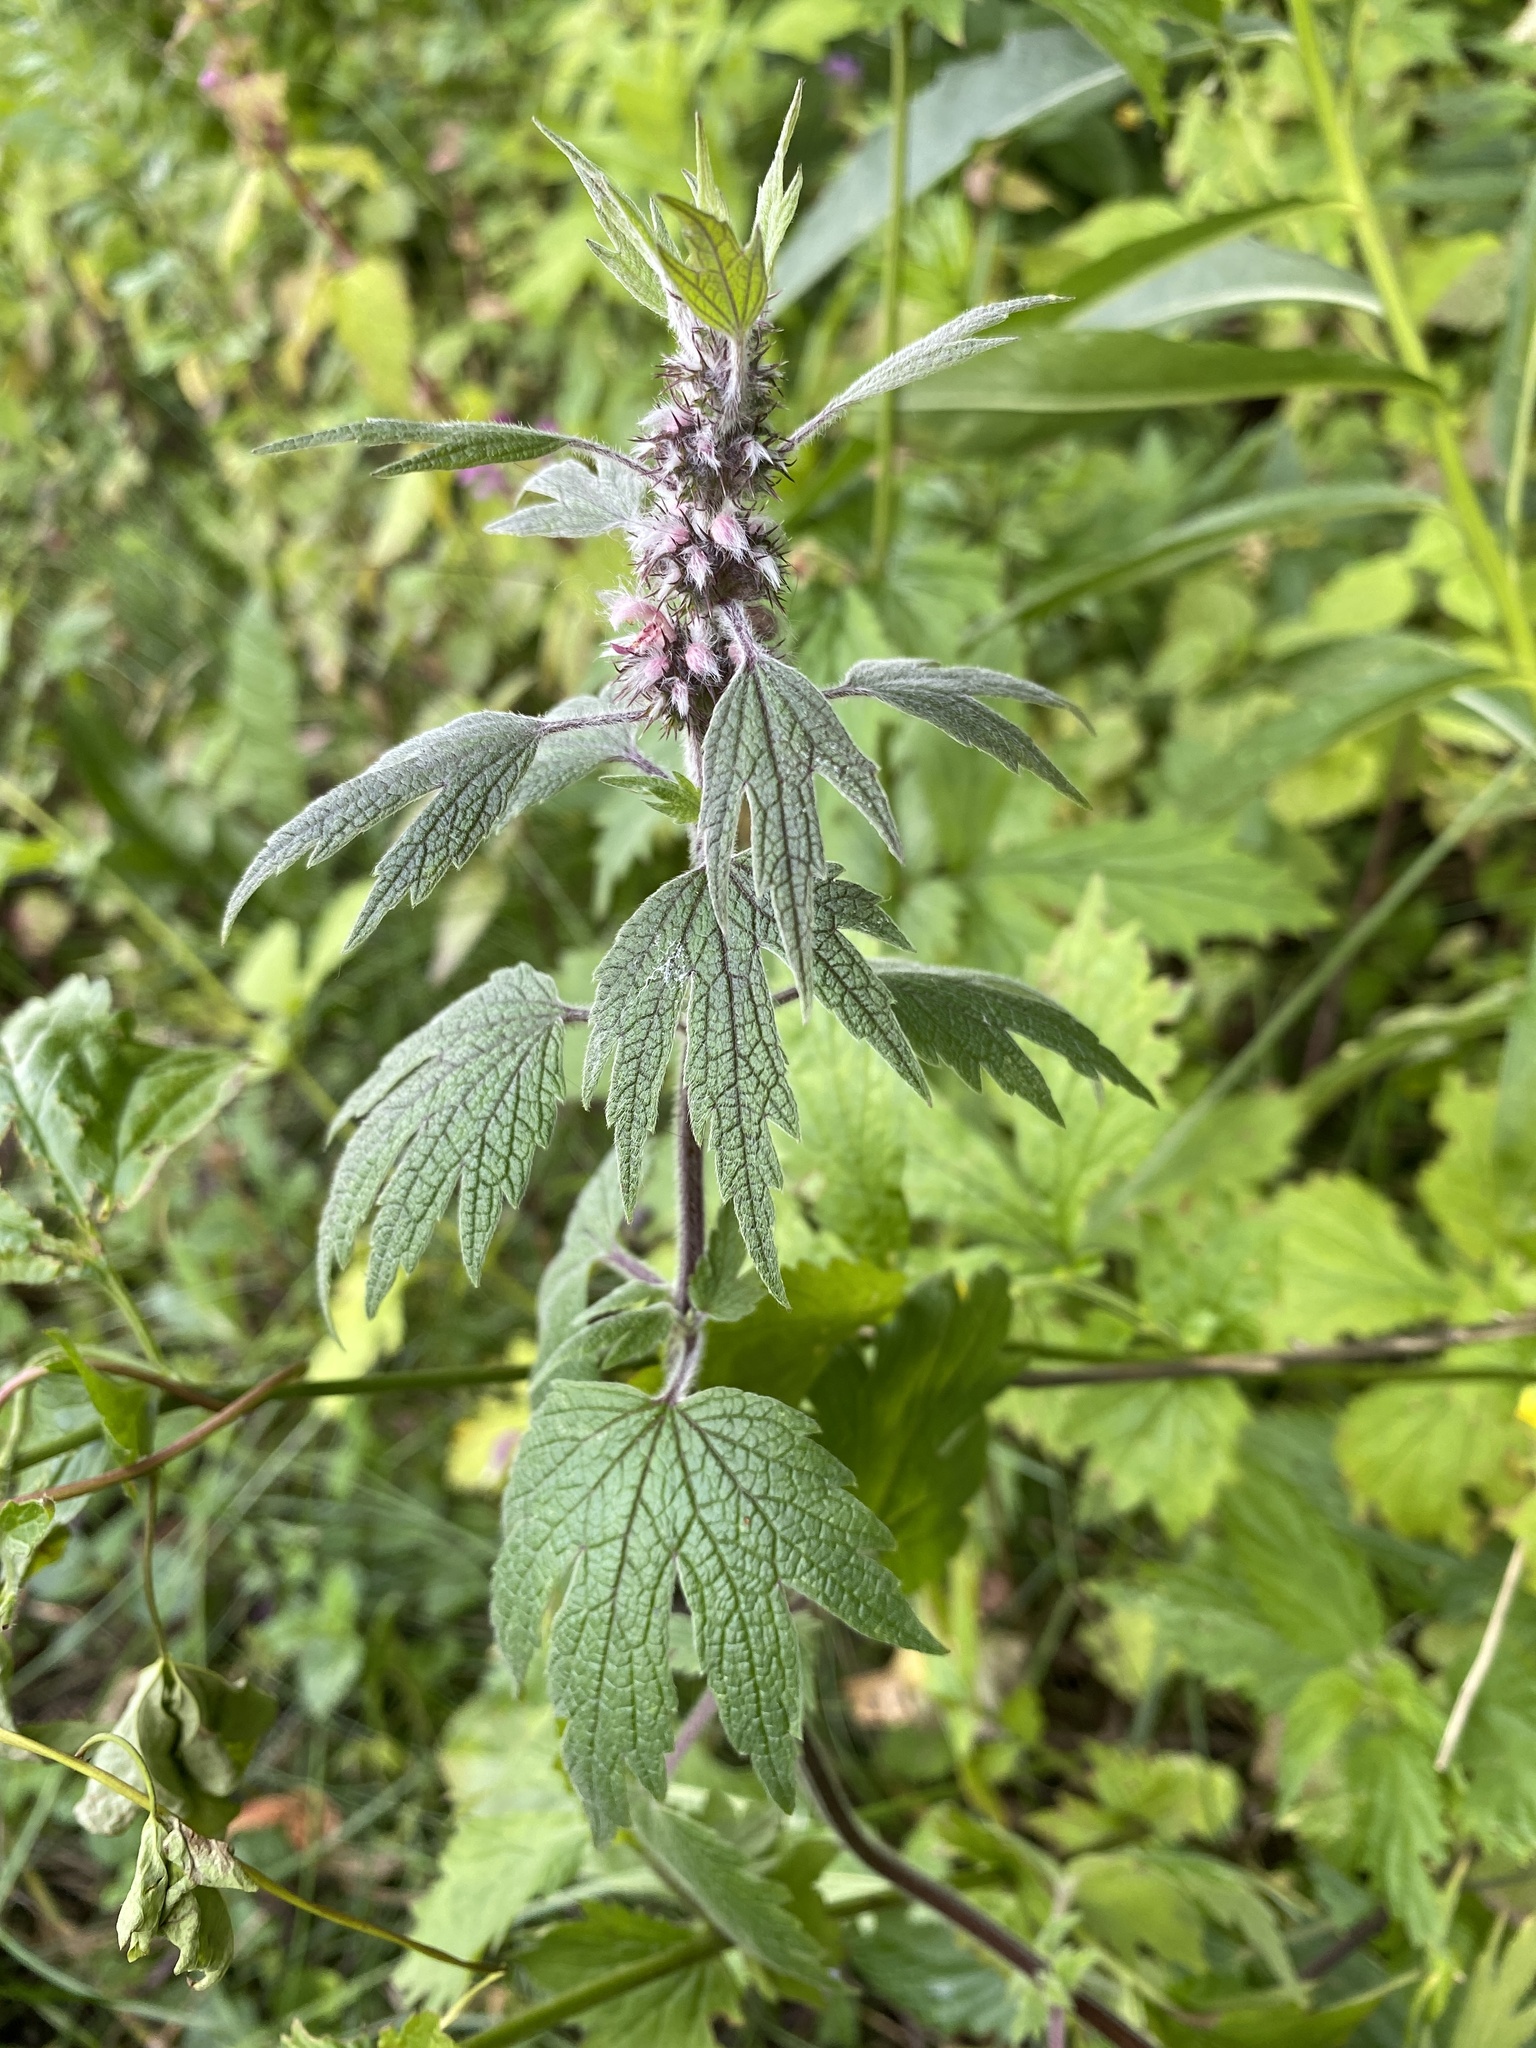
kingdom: Plantae
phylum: Tracheophyta
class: Magnoliopsida
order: Lamiales
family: Lamiaceae
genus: Leonurus
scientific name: Leonurus quinquelobatus
